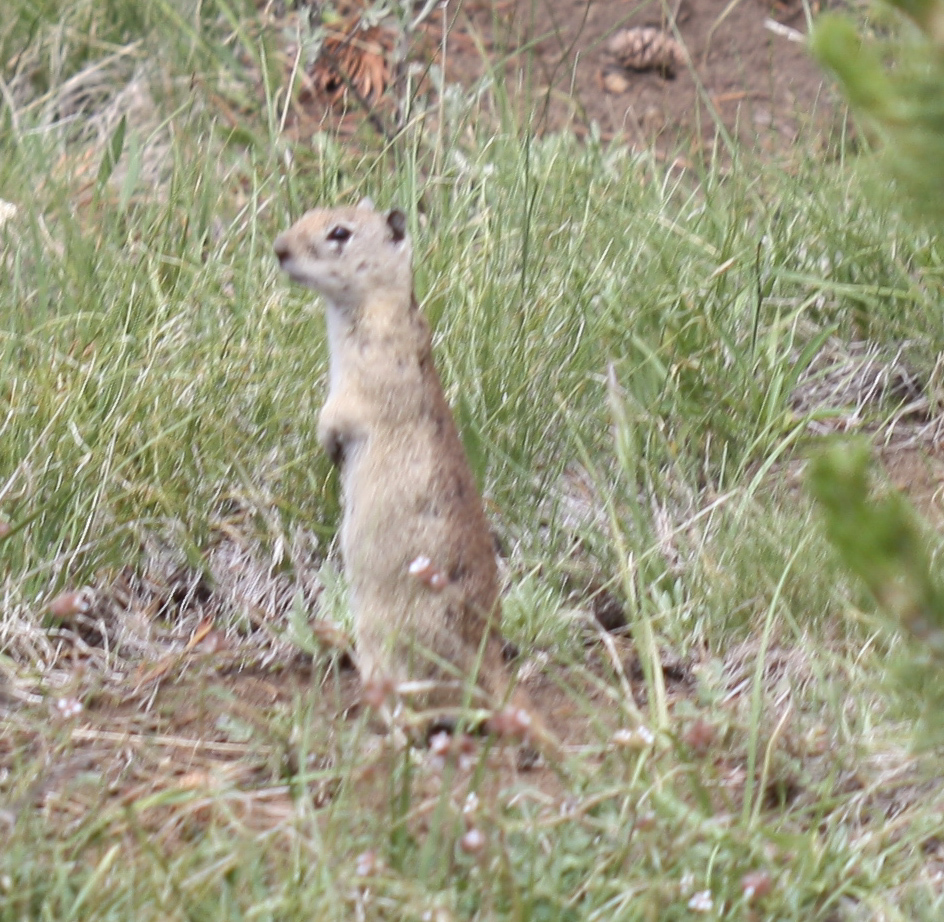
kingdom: Animalia
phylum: Chordata
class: Mammalia
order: Rodentia
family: Sciuridae
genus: Urocitellus
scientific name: Urocitellus beldingi
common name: Belding's ground squirrel
